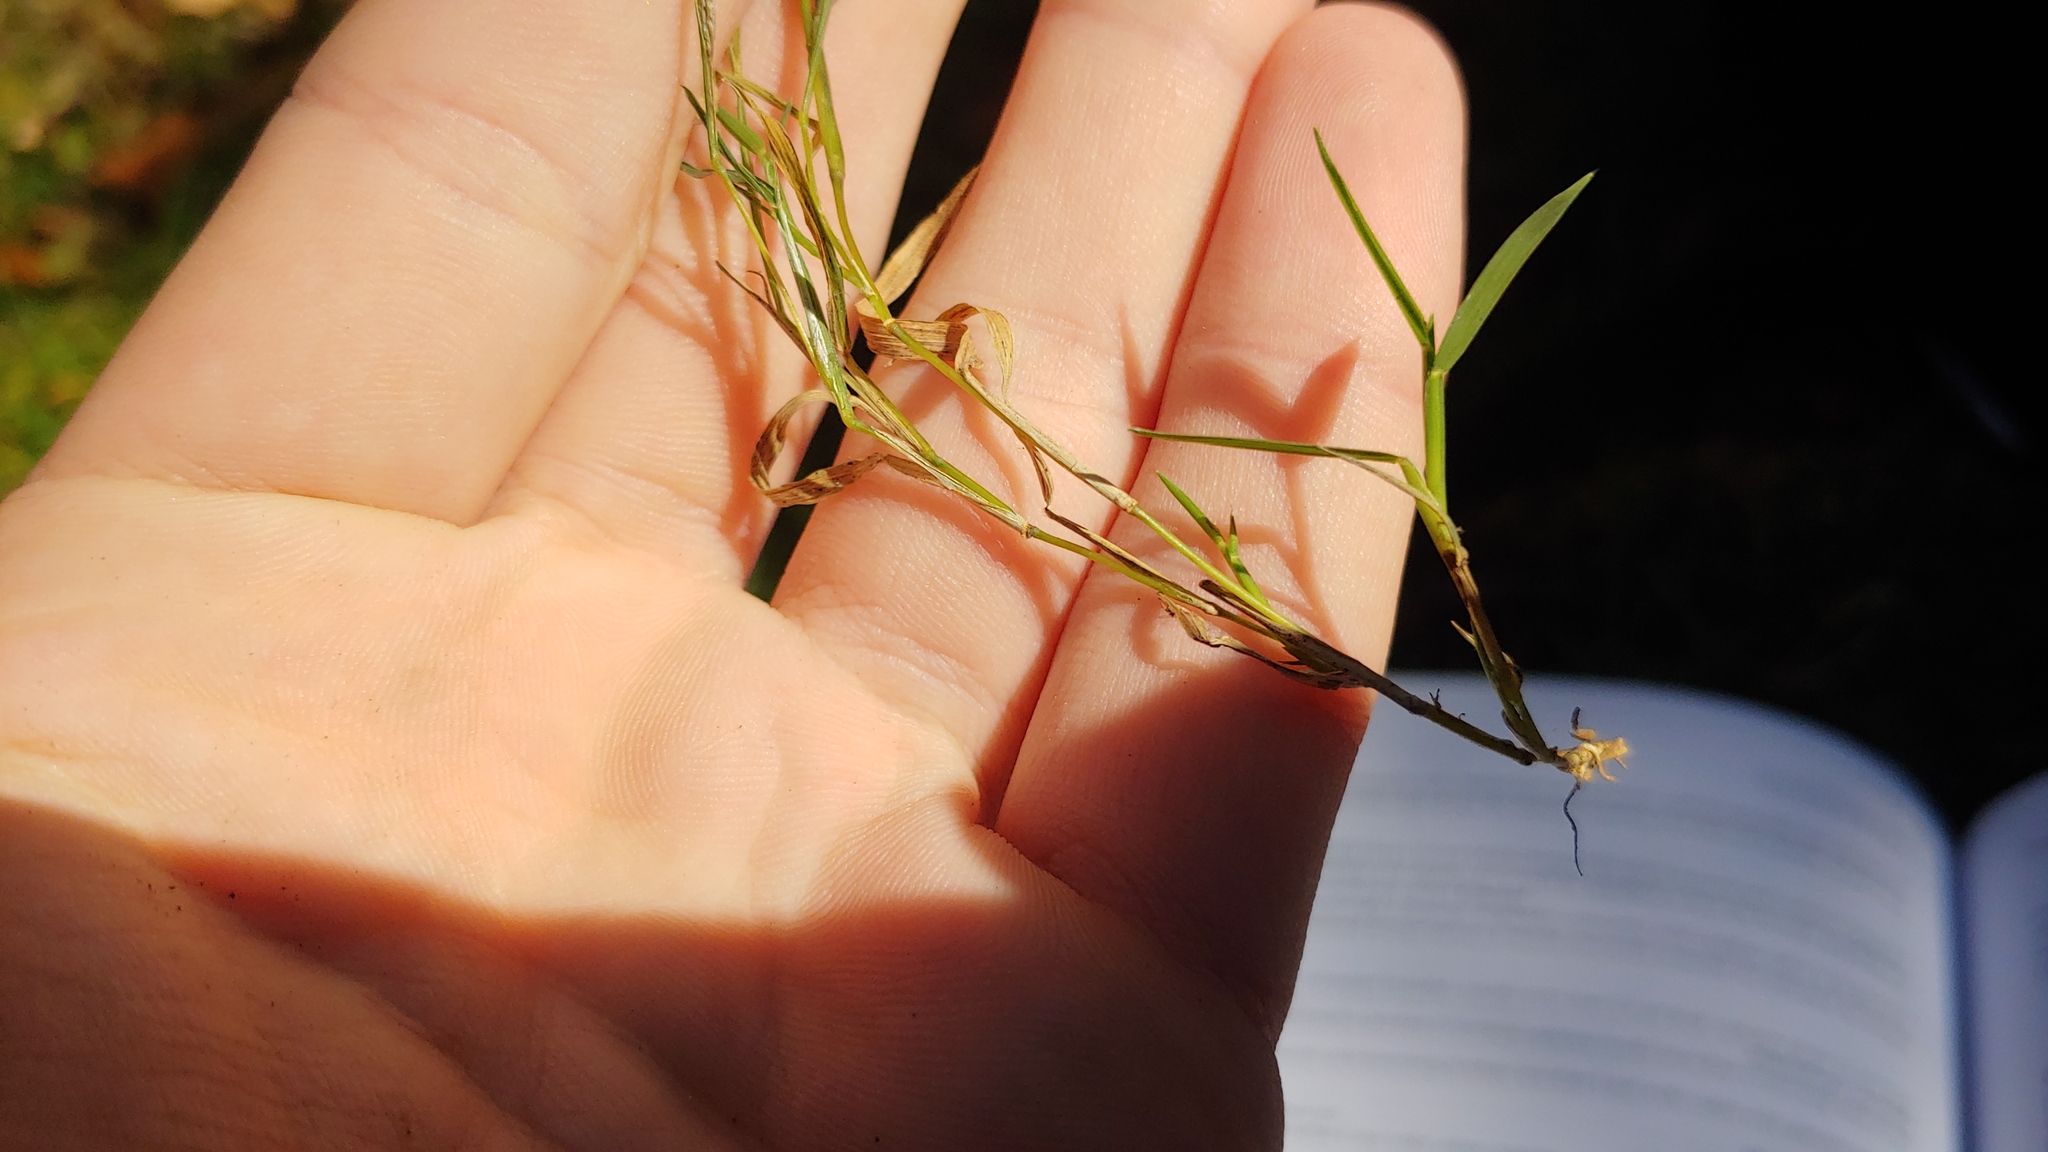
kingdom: Plantae
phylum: Tracheophyta
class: Liliopsida
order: Poales
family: Poaceae
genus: Muhlenbergia
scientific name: Muhlenbergia schreberi
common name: Nimblewill
